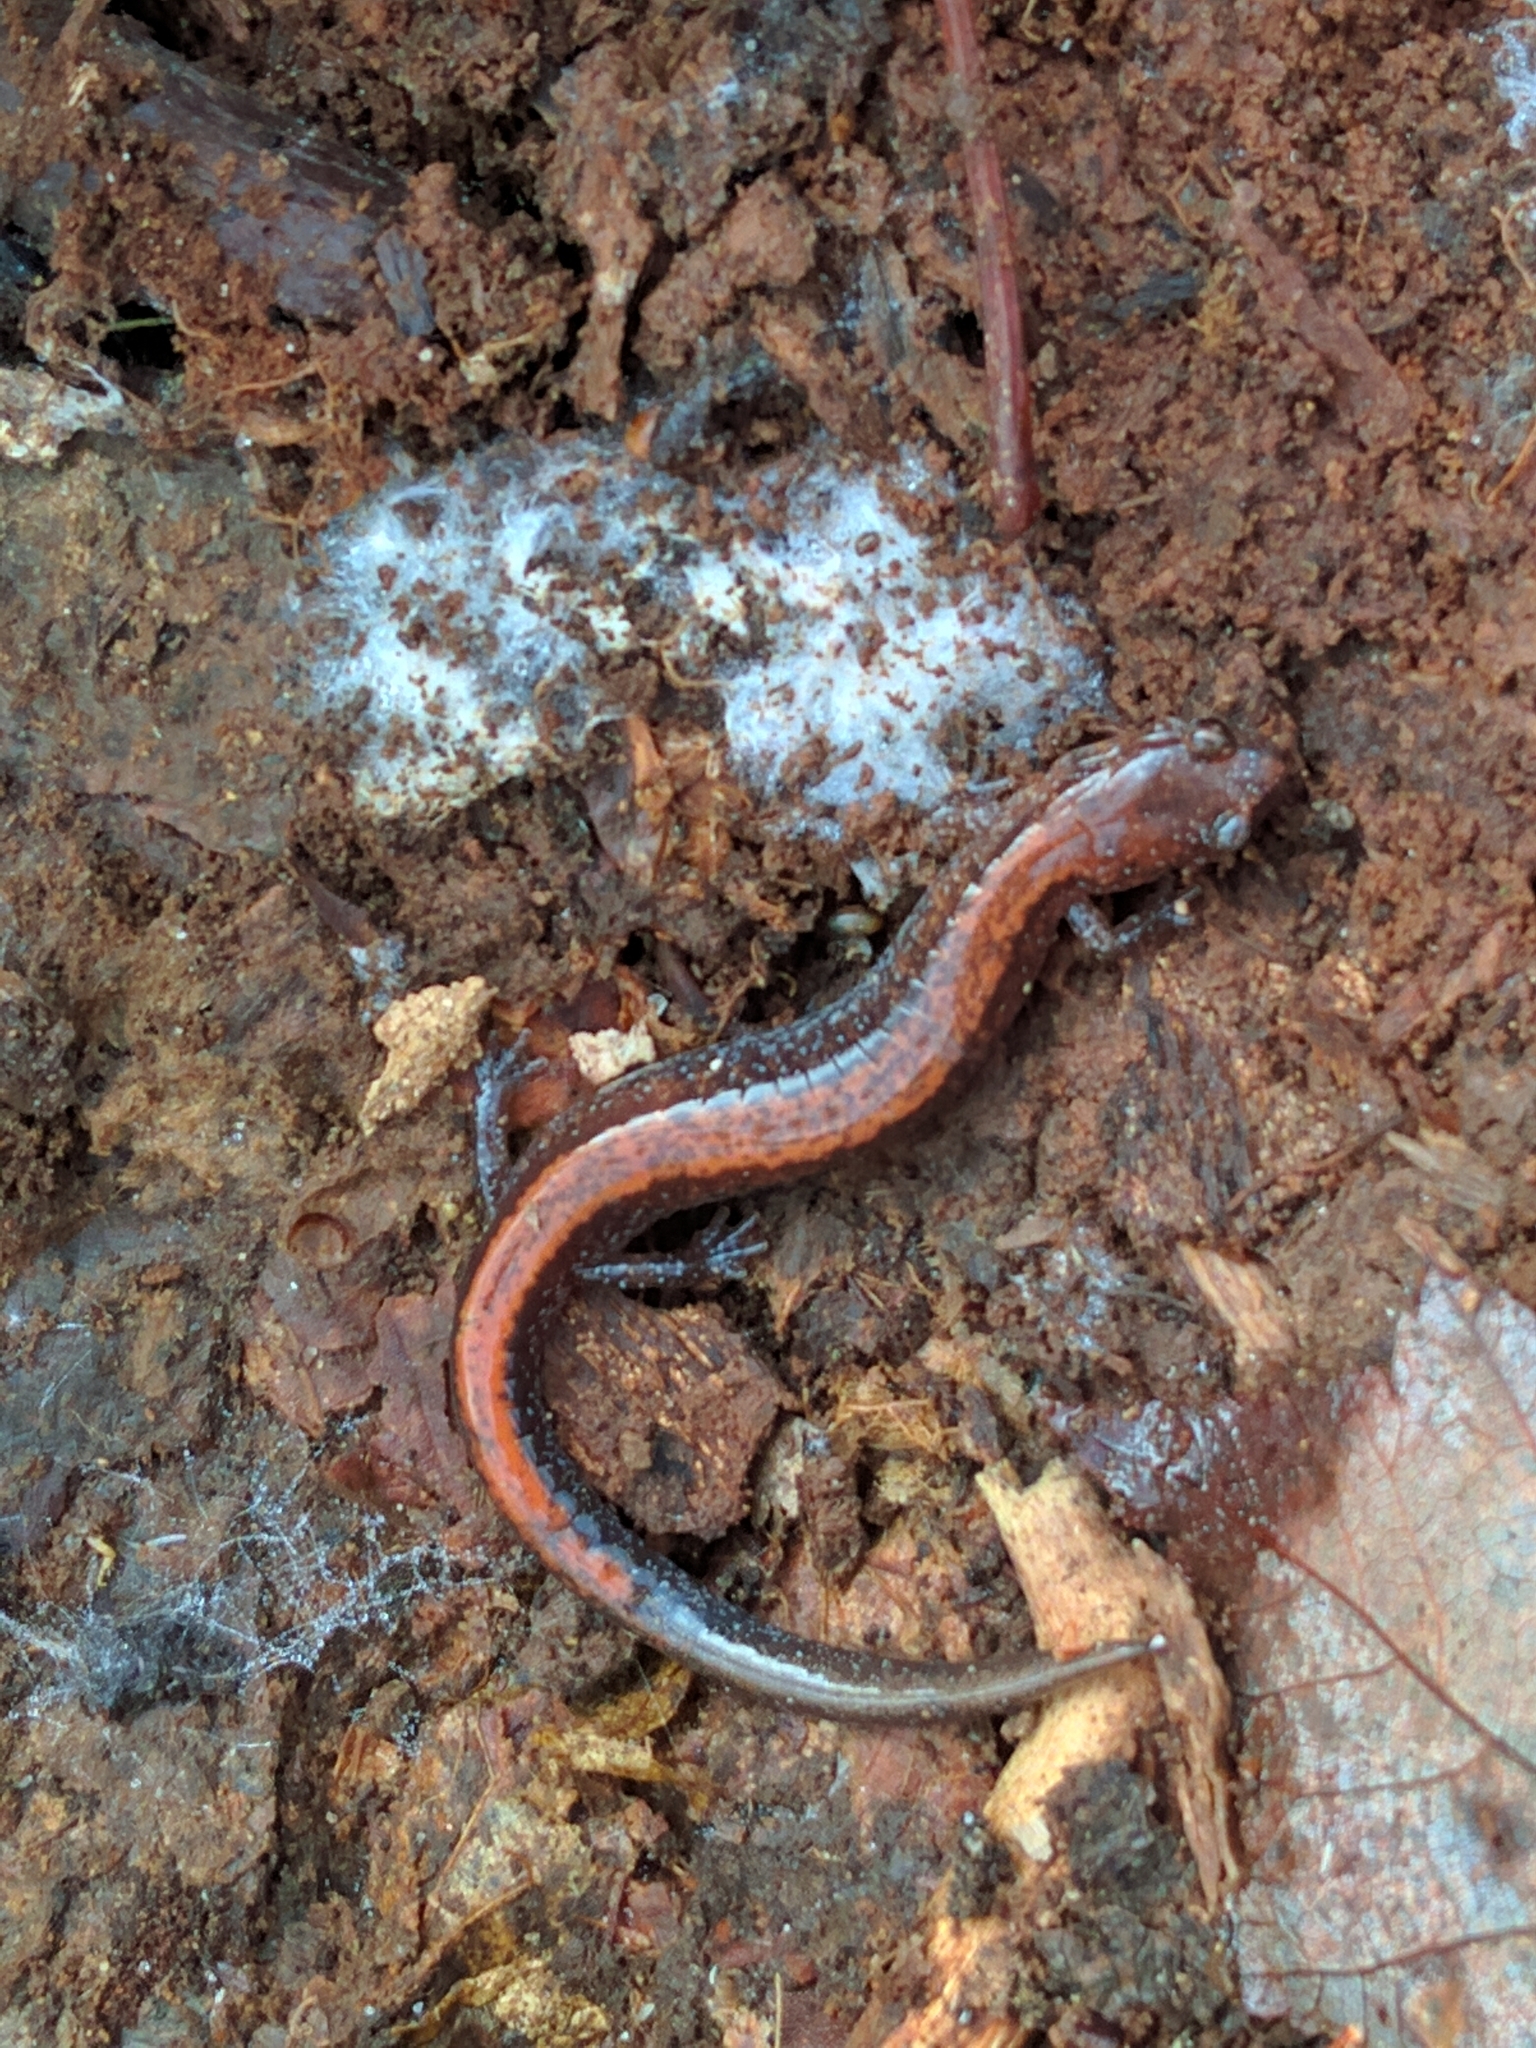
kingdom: Animalia
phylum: Chordata
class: Amphibia
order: Caudata
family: Plethodontidae
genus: Plethodon
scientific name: Plethodon cinereus
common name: Redback salamander
